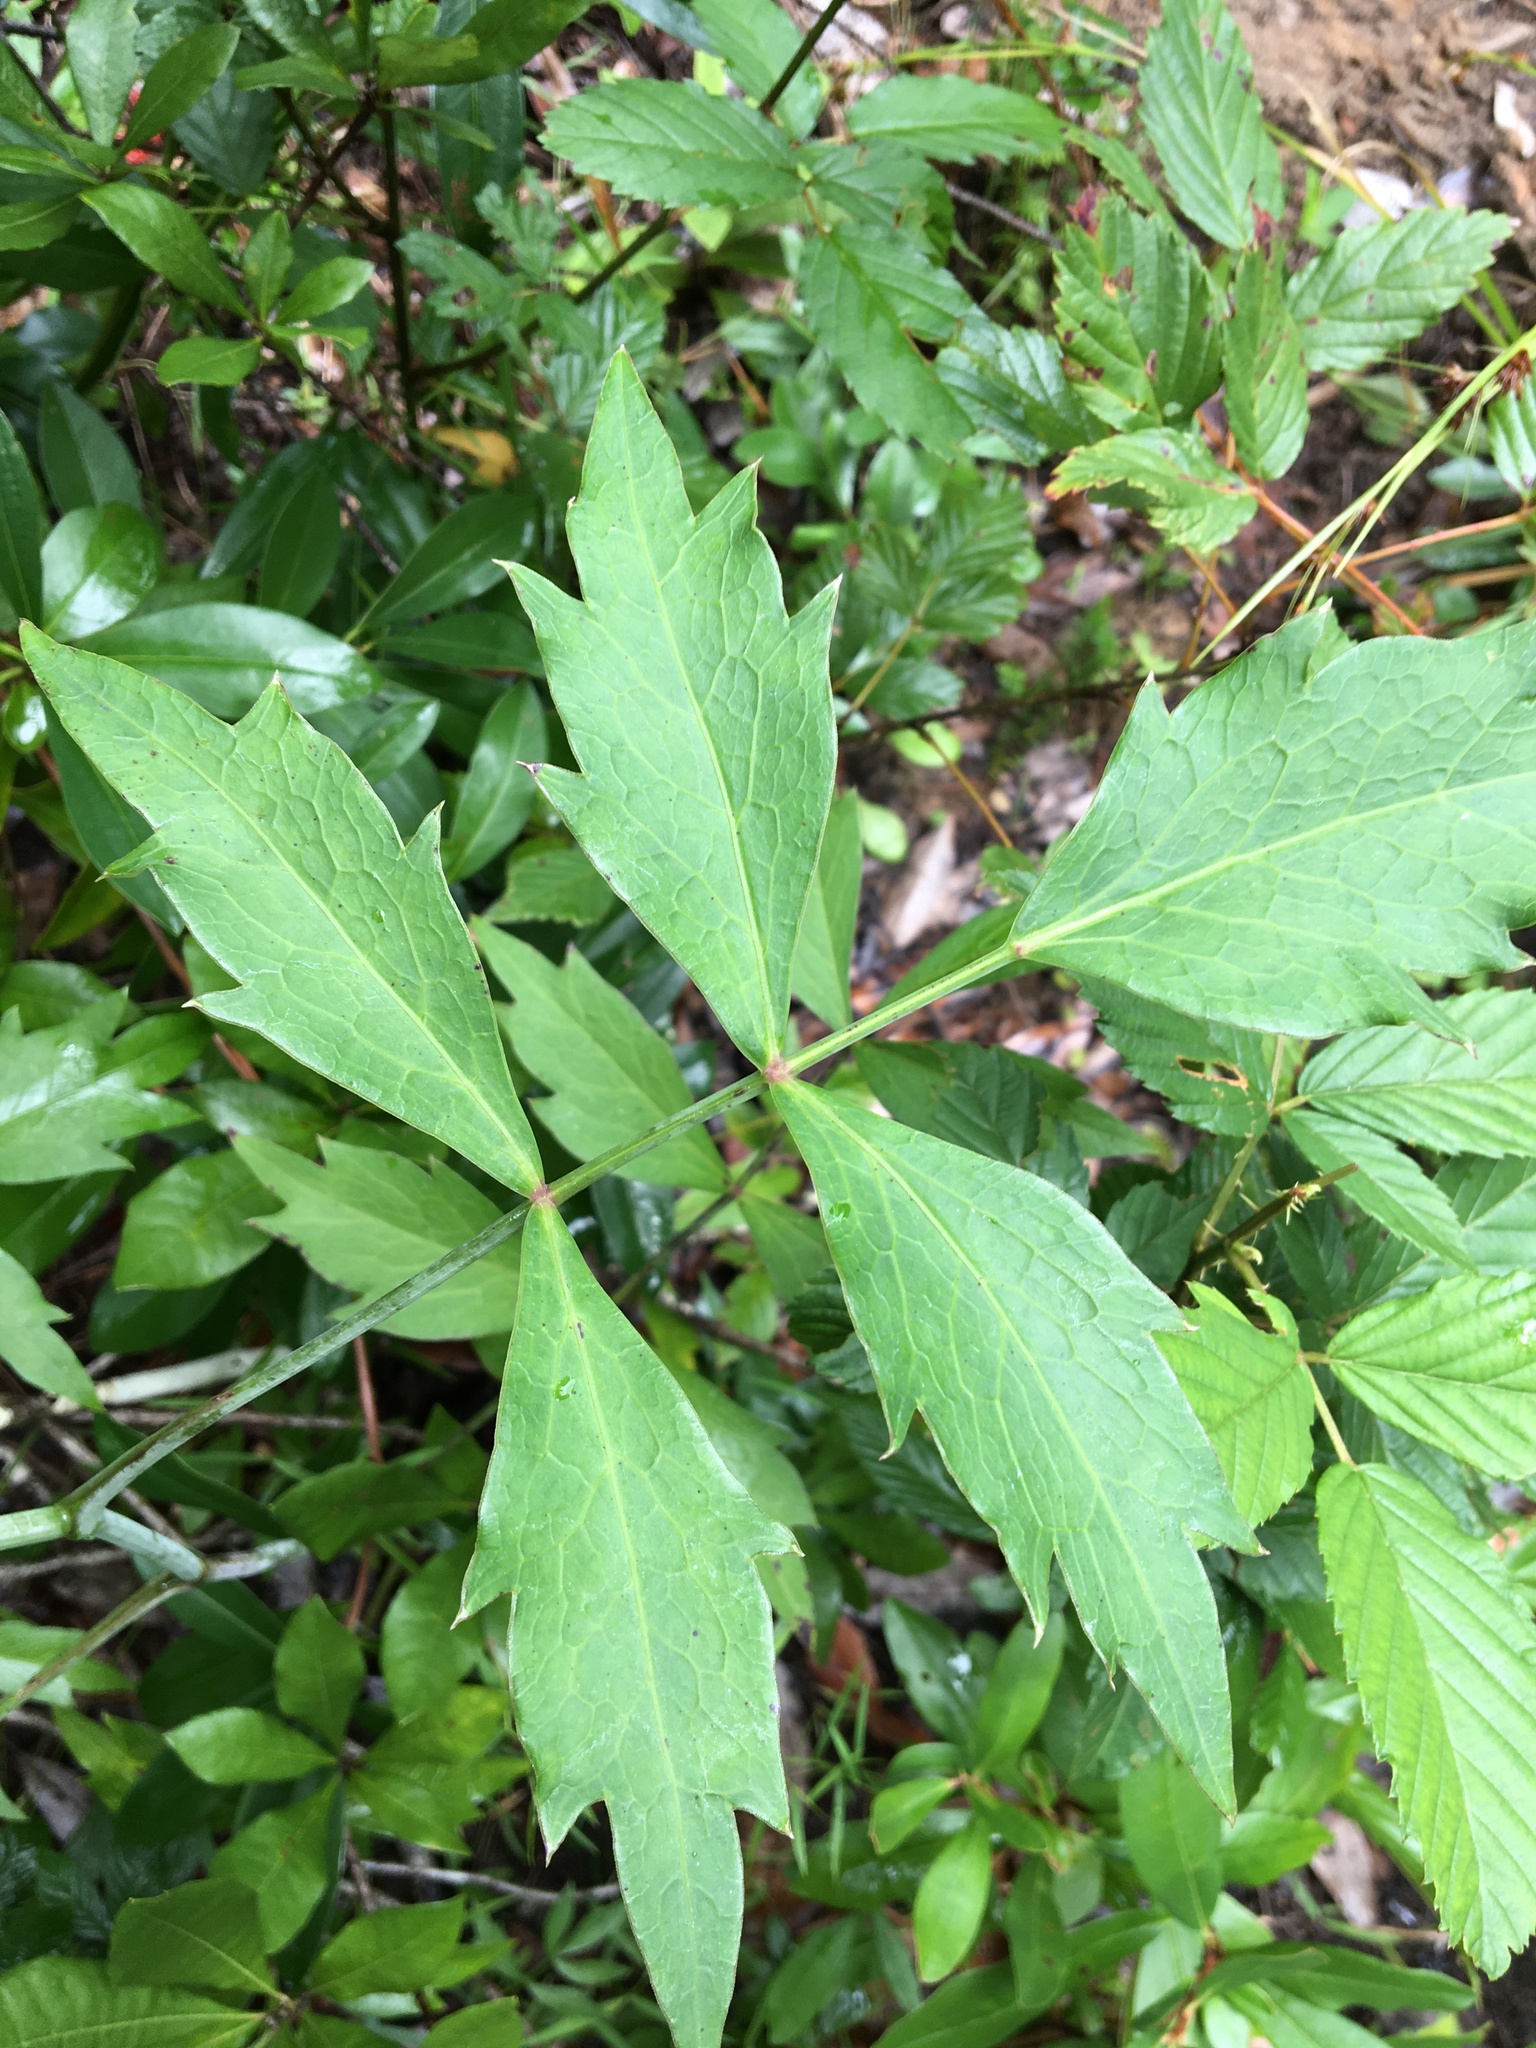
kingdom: Plantae
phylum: Tracheophyta
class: Magnoliopsida
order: Apiales
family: Apiaceae
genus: Oxypolis
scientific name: Oxypolis rigidior
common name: Cowbane
